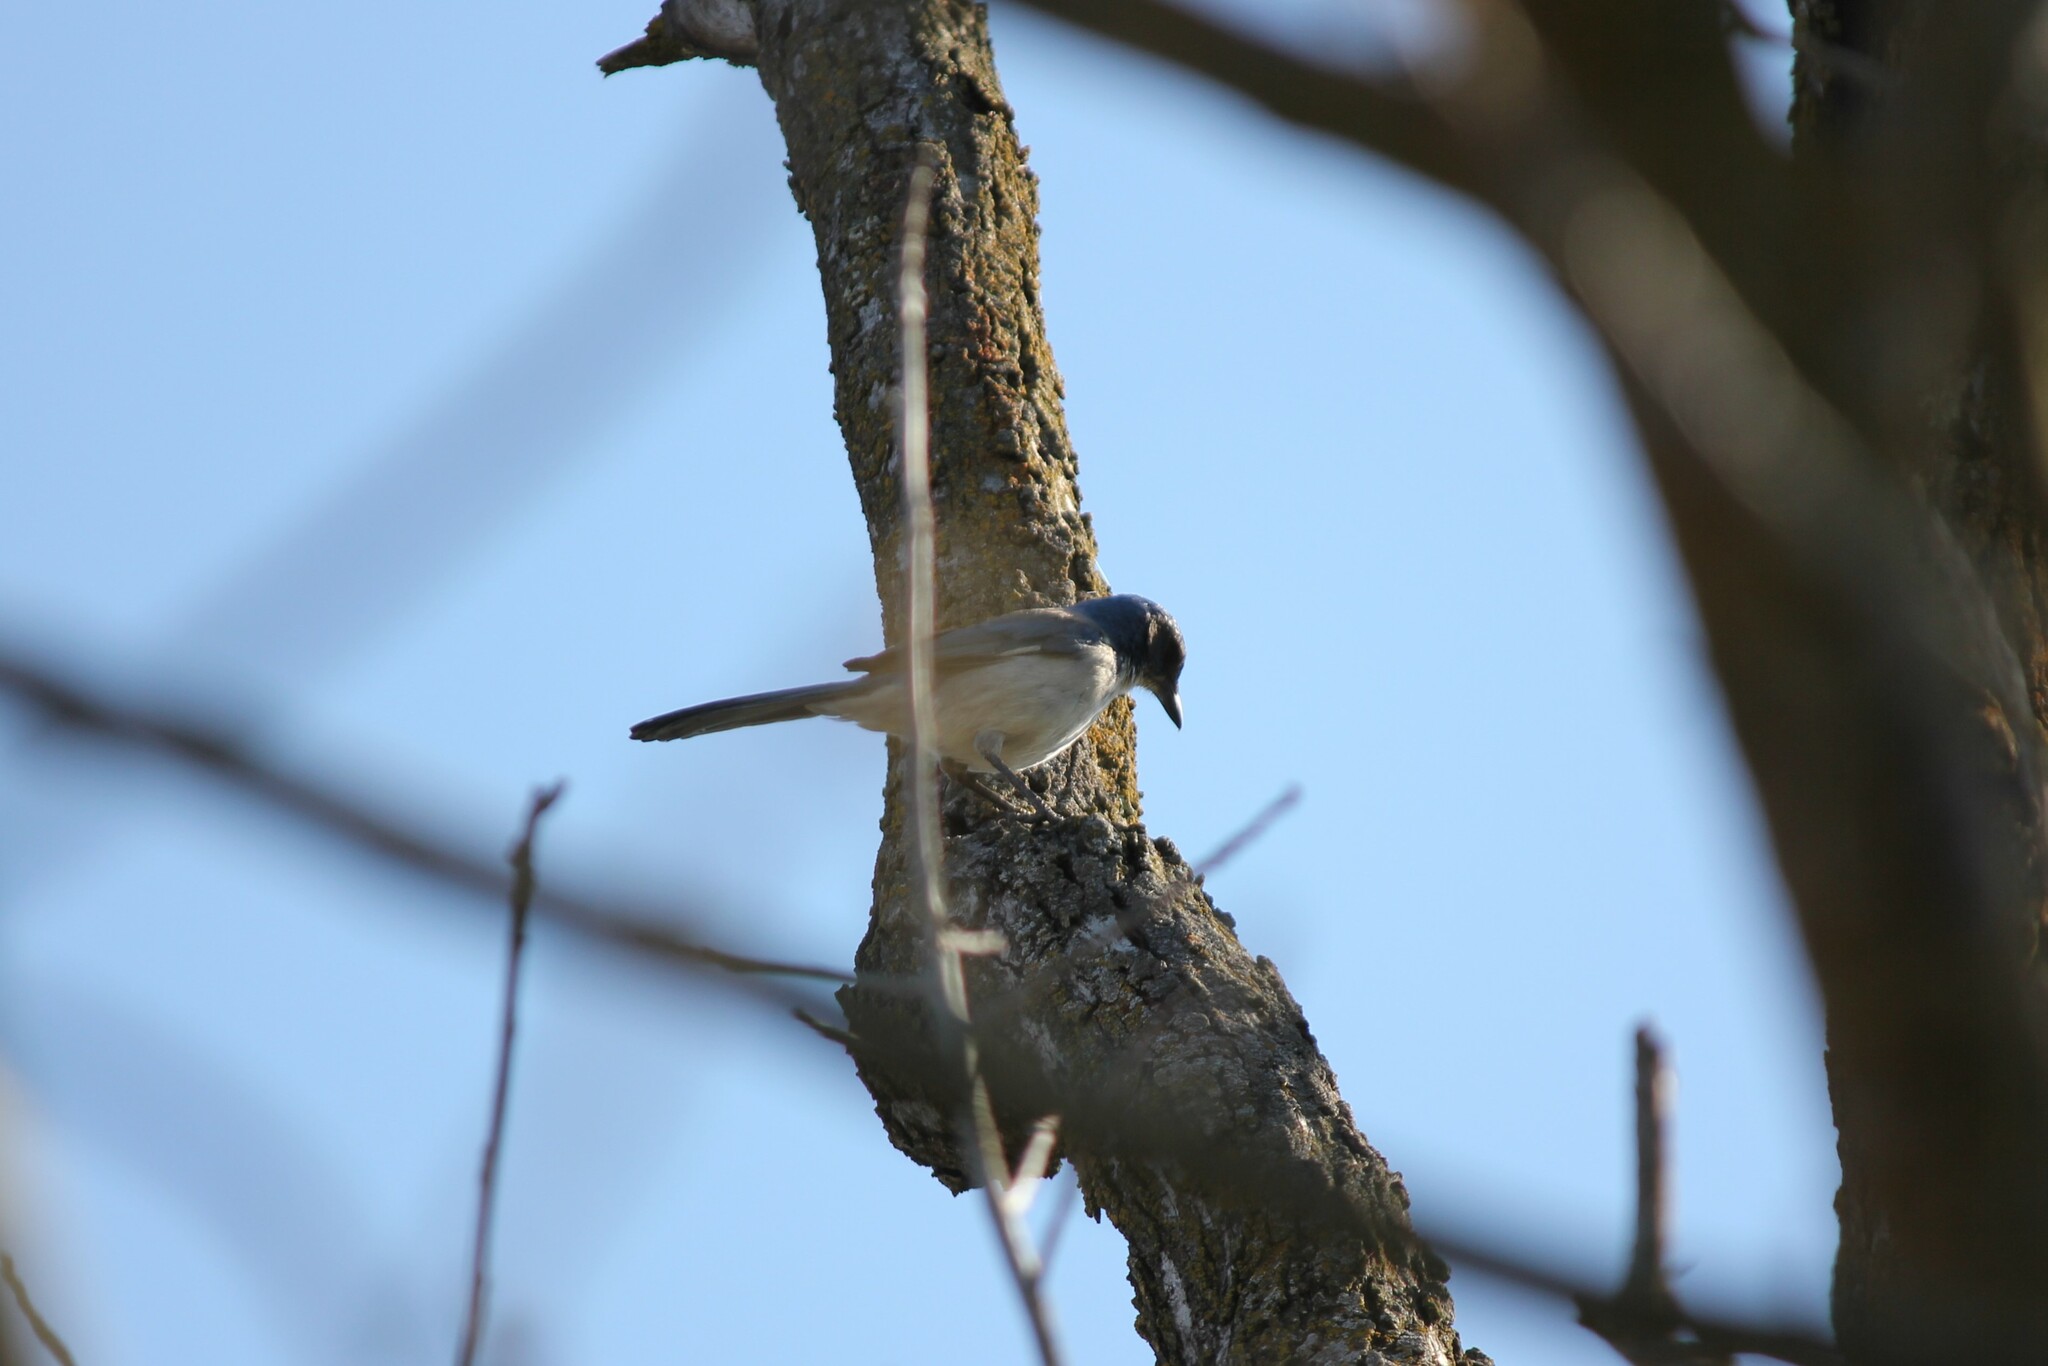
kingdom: Animalia
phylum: Chordata
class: Aves
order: Passeriformes
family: Corvidae
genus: Aphelocoma
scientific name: Aphelocoma californica
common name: California scrub-jay
